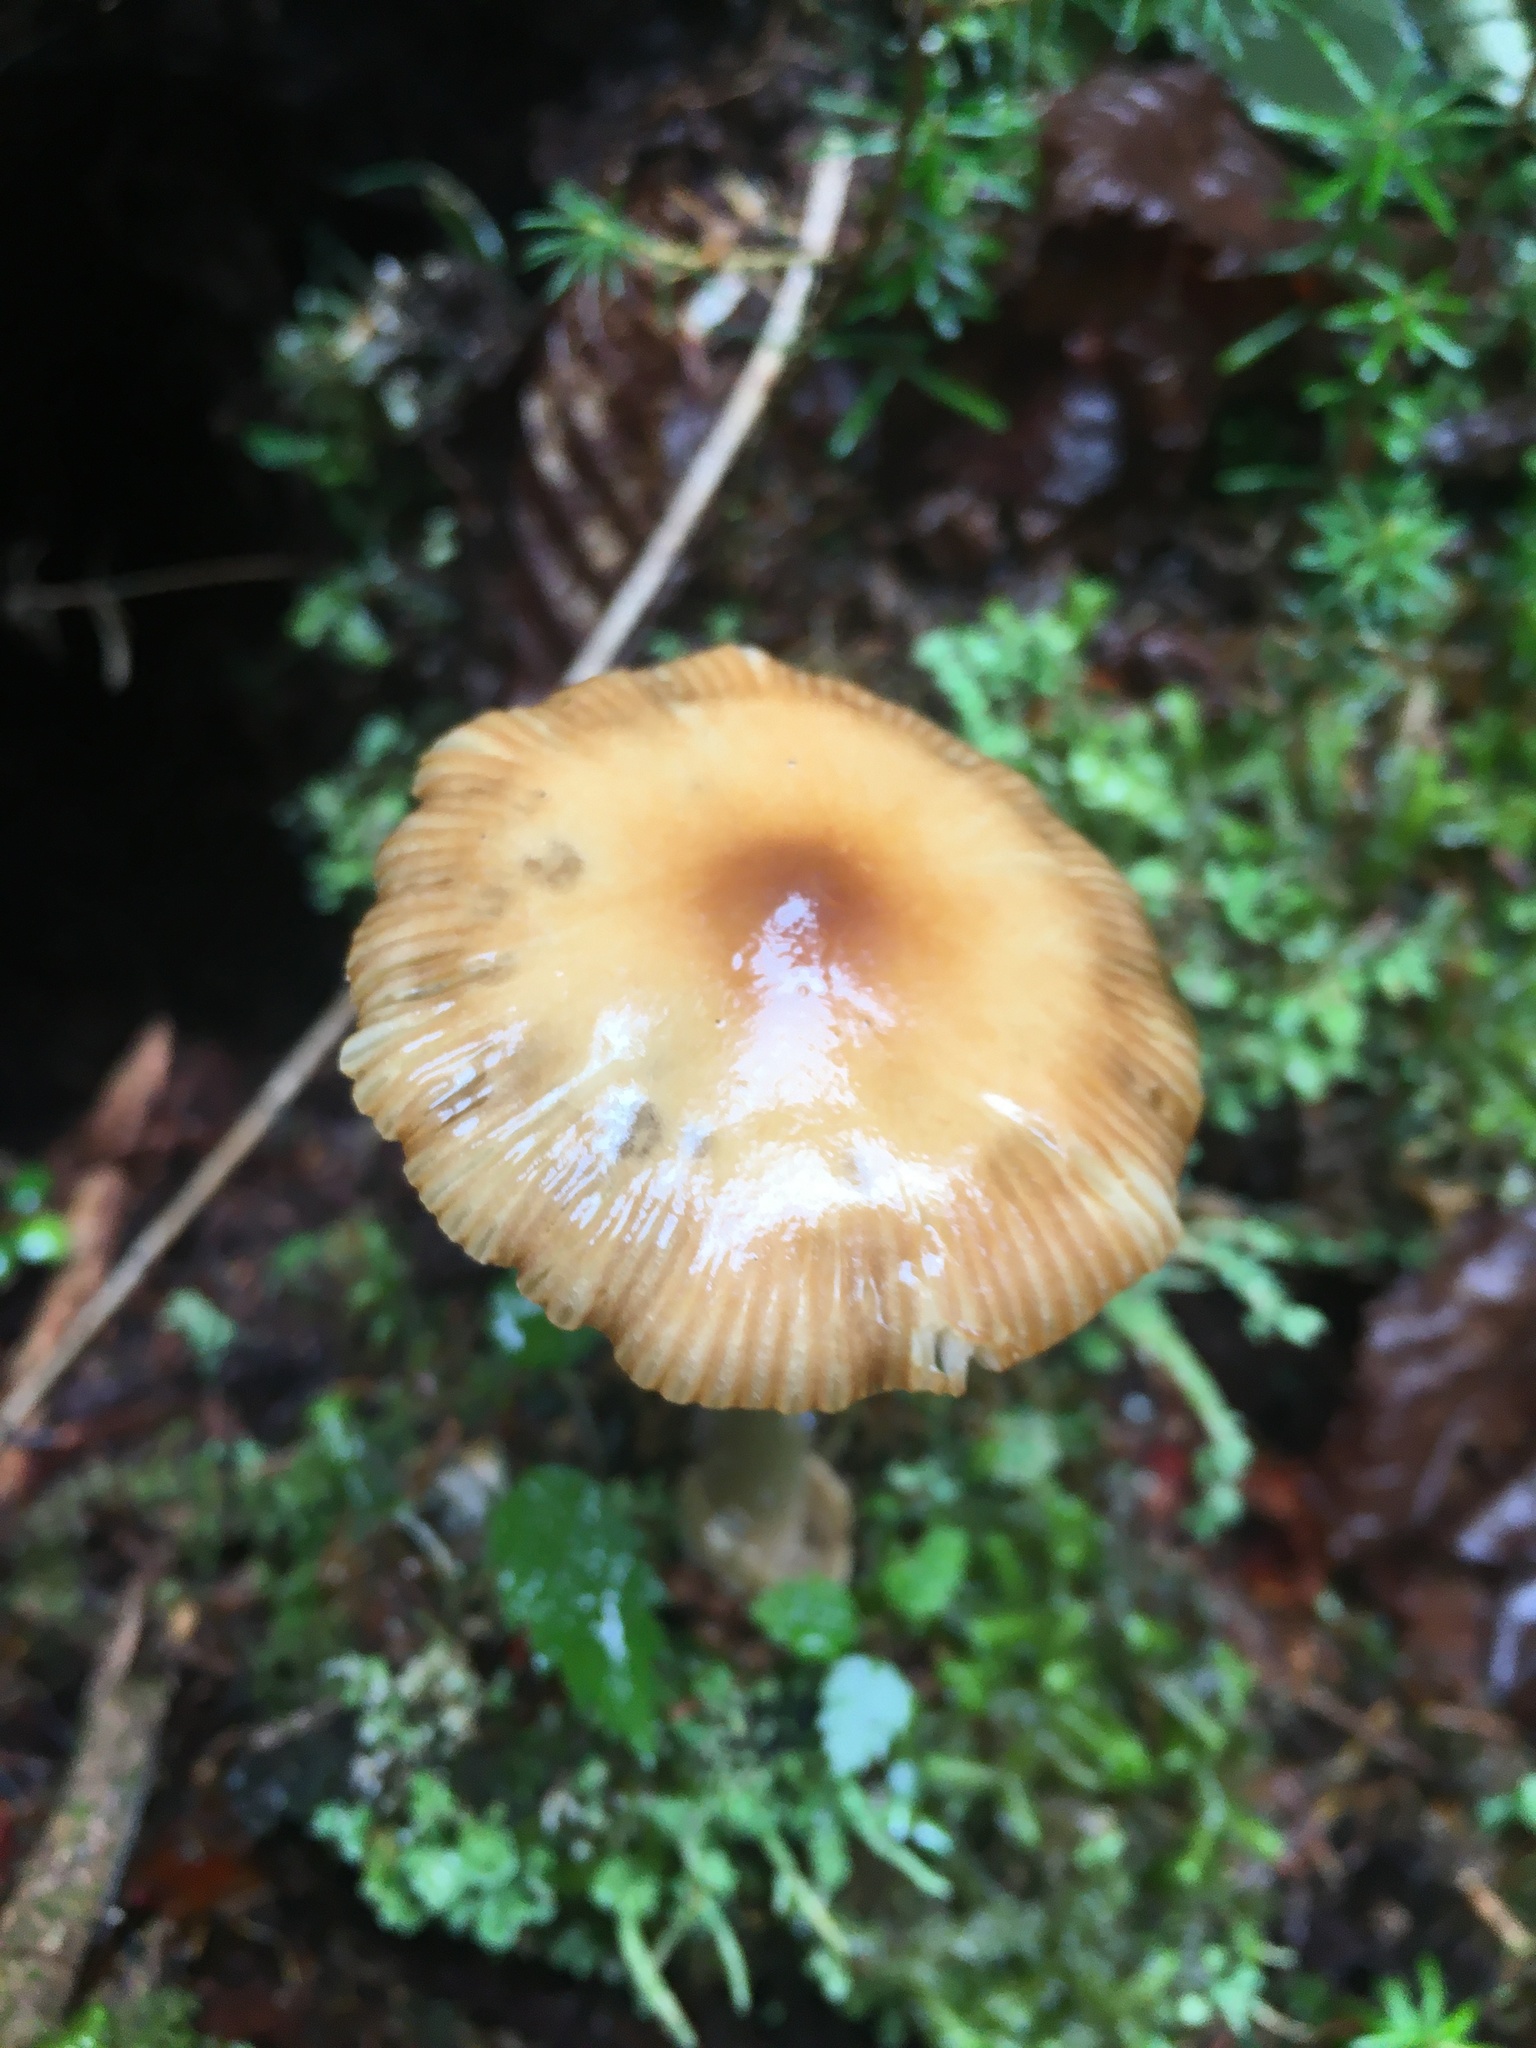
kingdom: Fungi
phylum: Basidiomycota
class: Agaricomycetes
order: Agaricales
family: Amanitaceae
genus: Amanita
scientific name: Amanita fulva
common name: Tawny grisette
